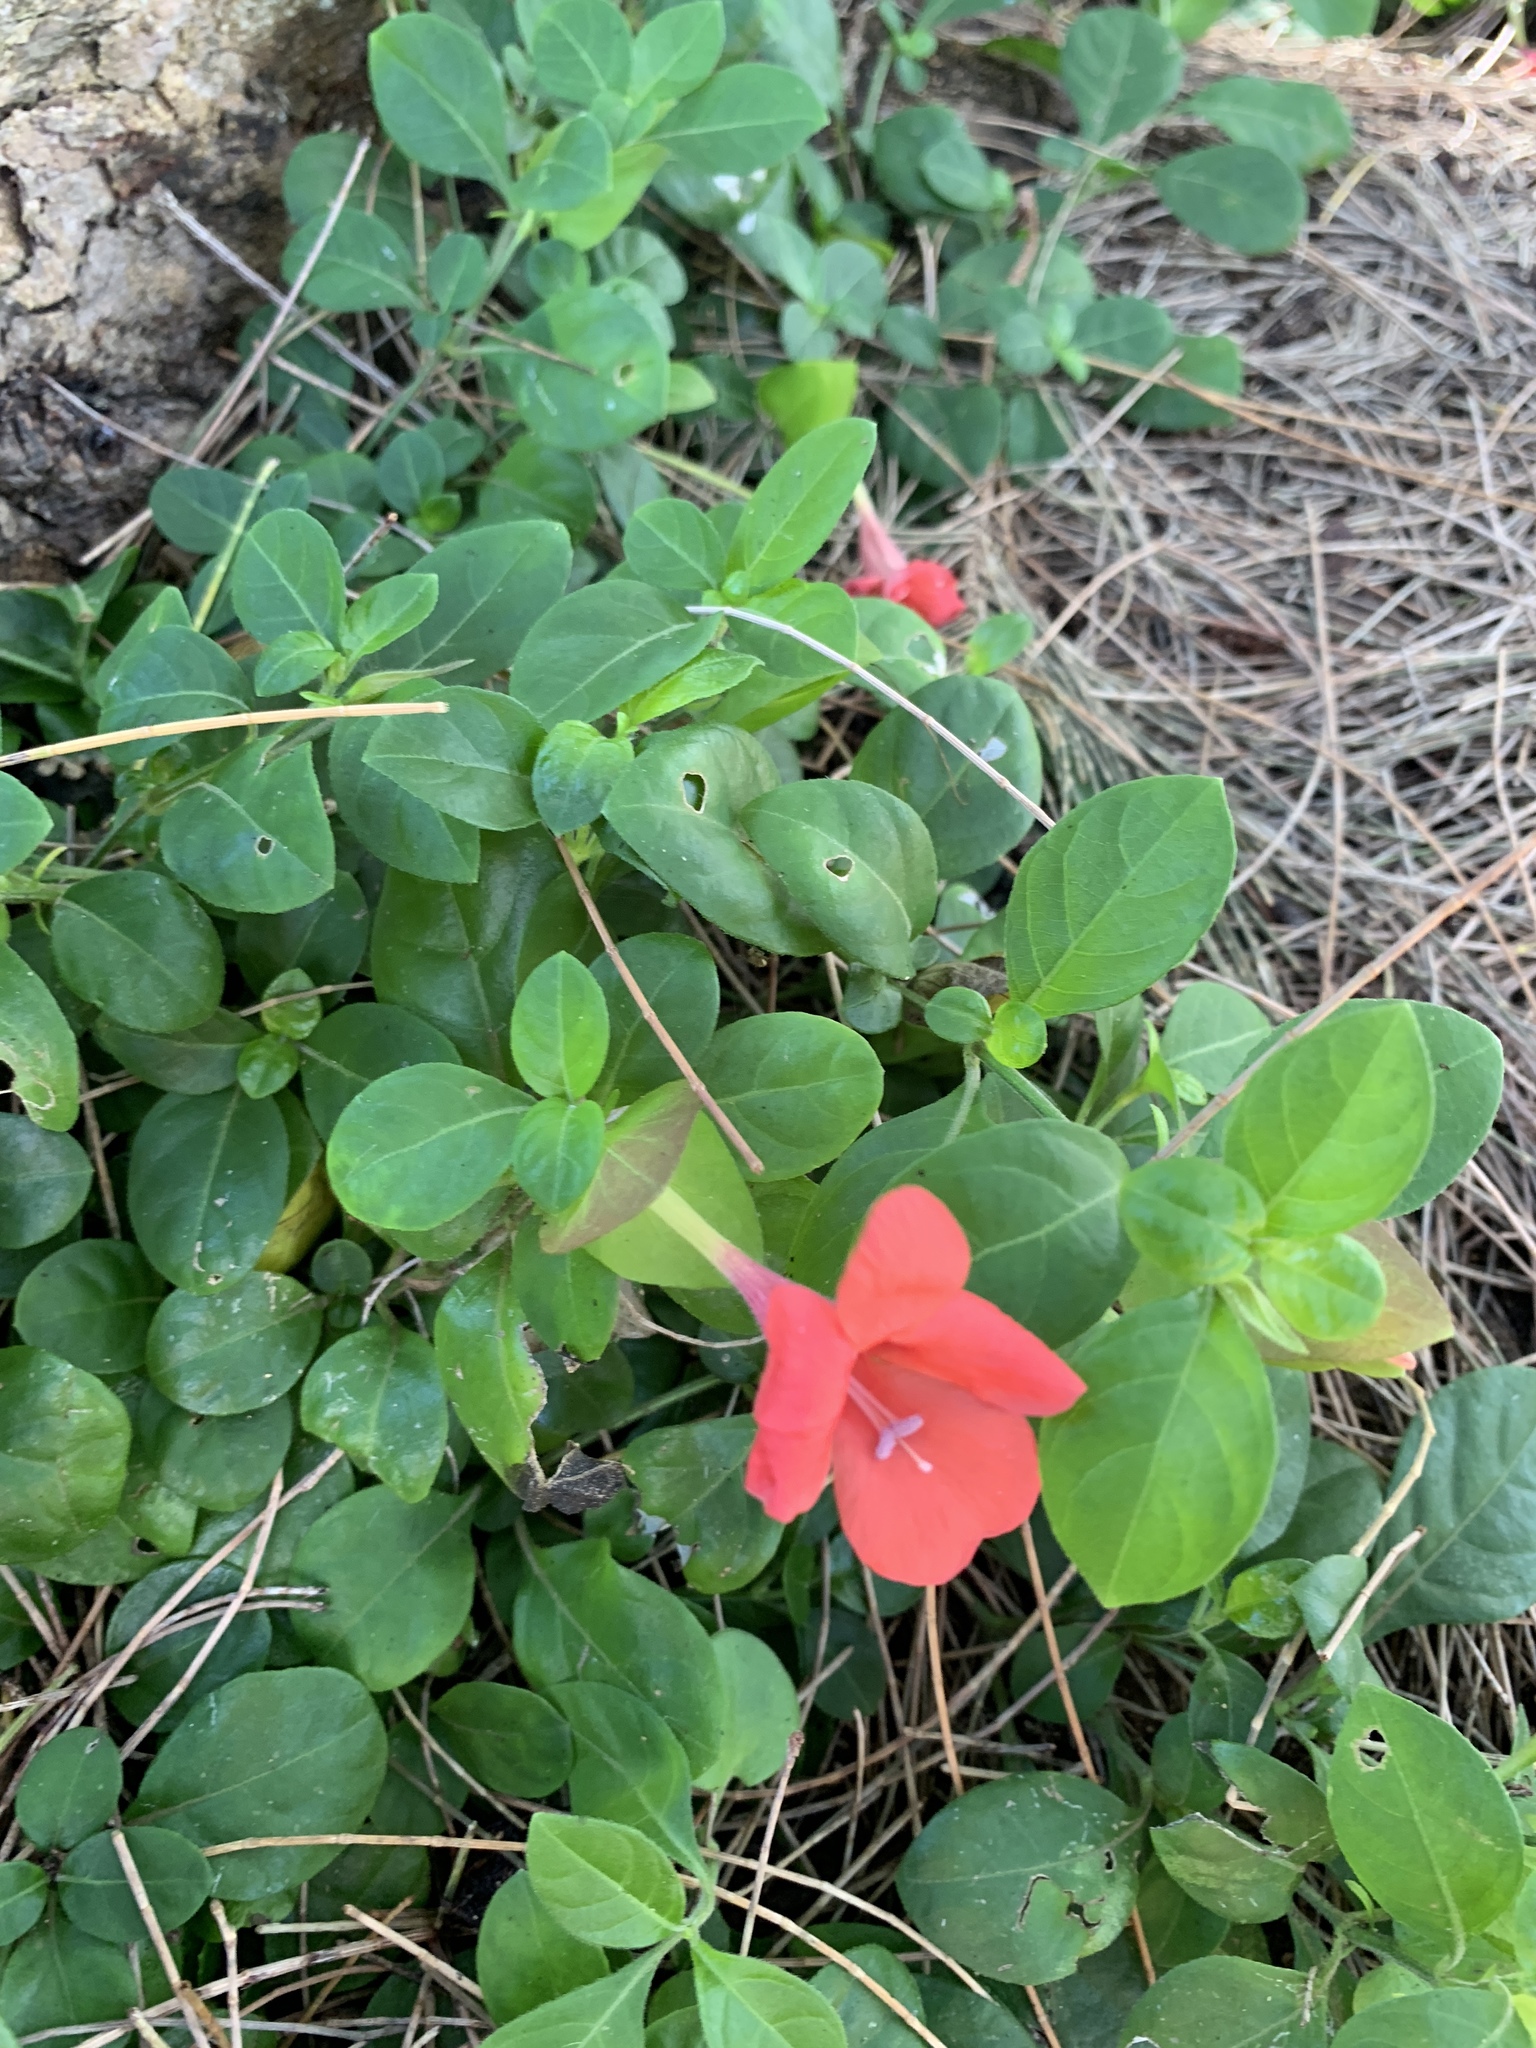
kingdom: Plantae
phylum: Tracheophyta
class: Magnoliopsida
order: Lamiales
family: Acanthaceae
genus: Barleria
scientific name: Barleria repens
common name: Pink-ruellia
